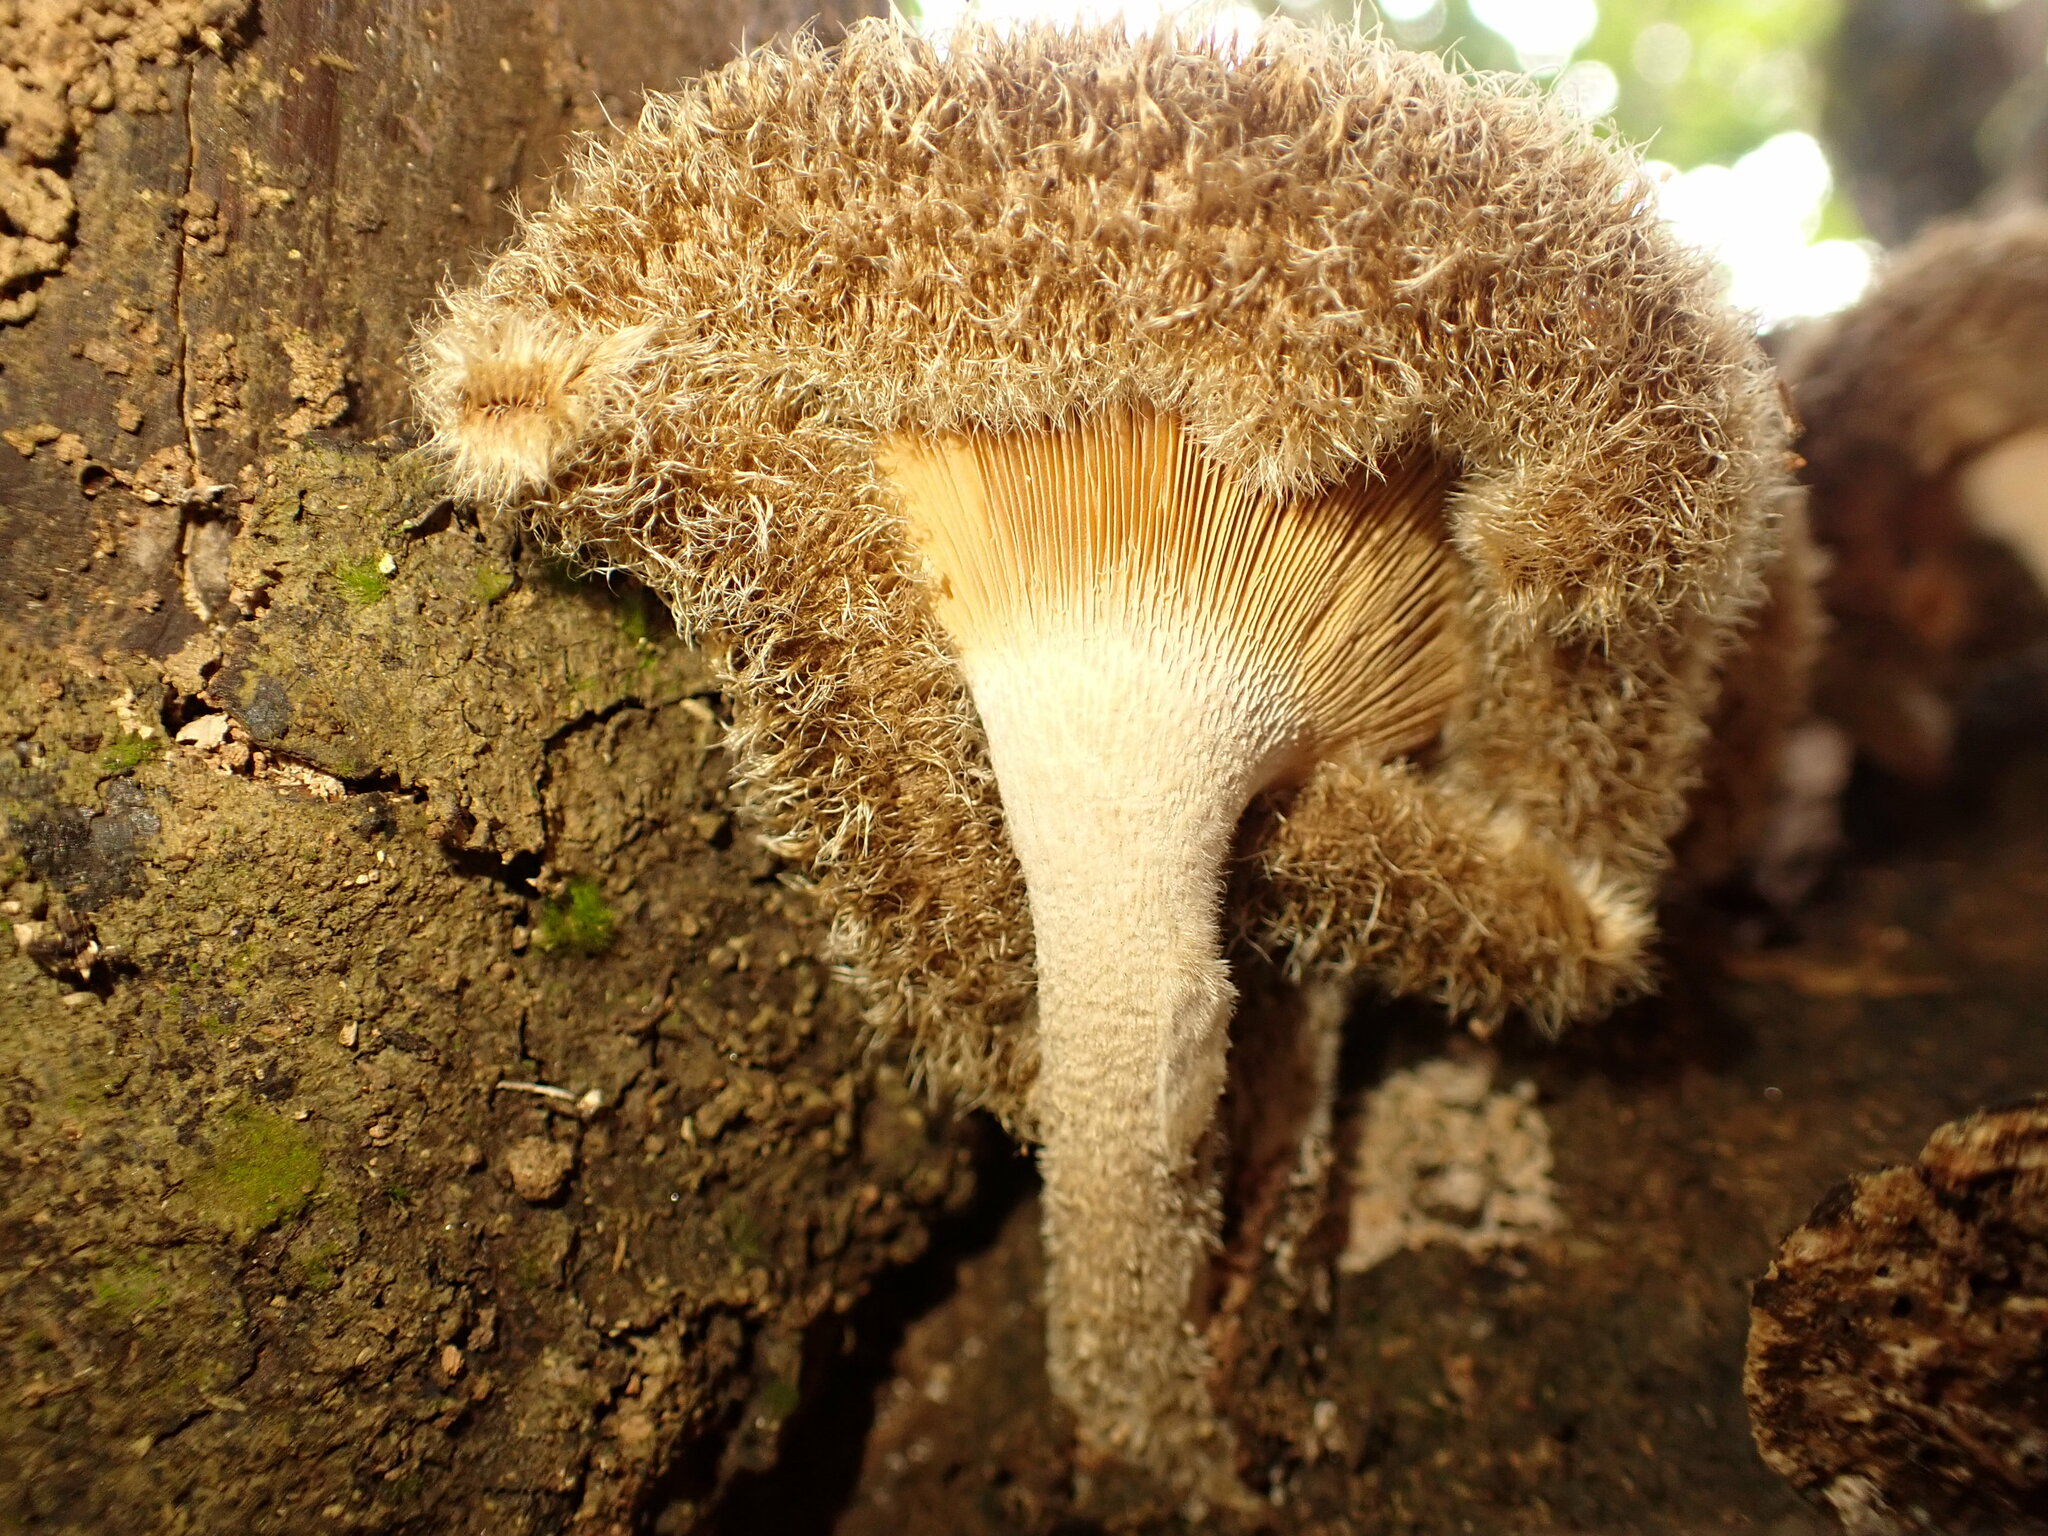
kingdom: Fungi
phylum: Basidiomycota
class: Agaricomycetes
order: Polyporales
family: Polyporaceae
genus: Lentinus
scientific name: Lentinus berteroi
